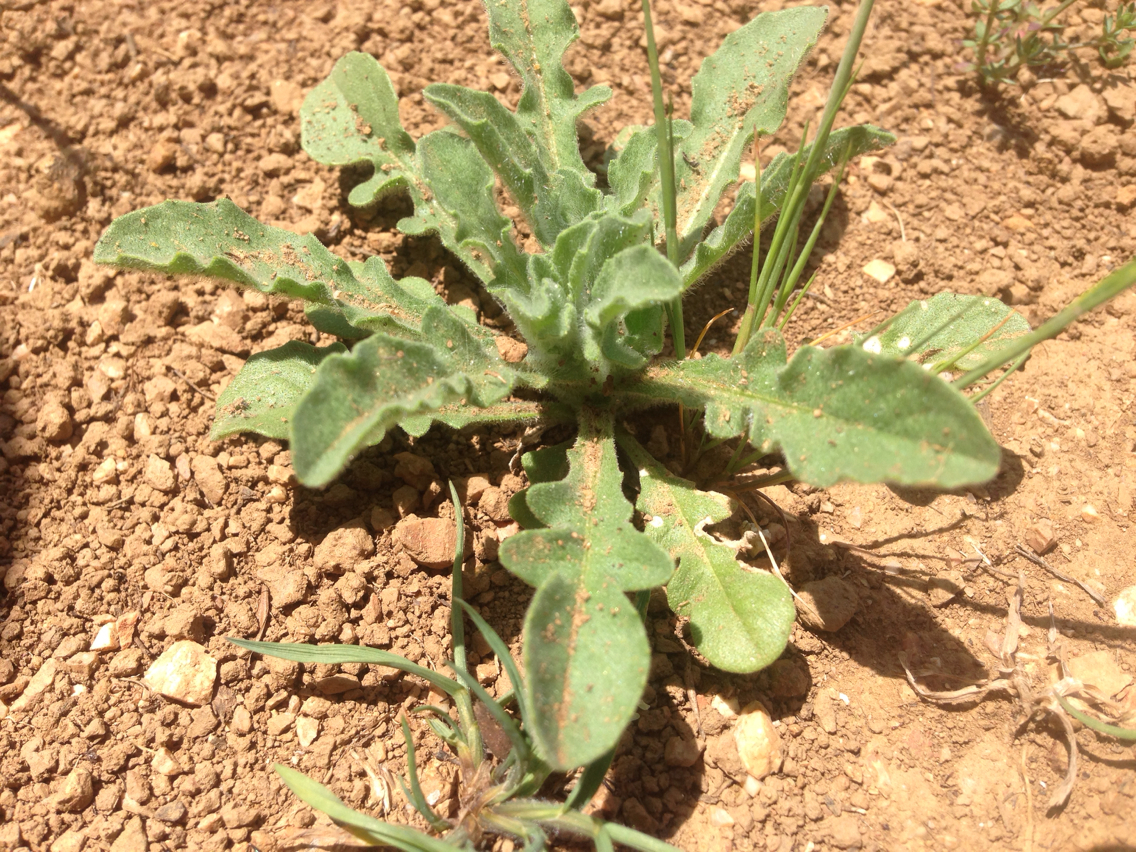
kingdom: Plantae
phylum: Tracheophyta
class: Magnoliopsida
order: Asterales
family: Asteraceae
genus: Centaurea
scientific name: Centaurea melitensis
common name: Maltese star-thistle
